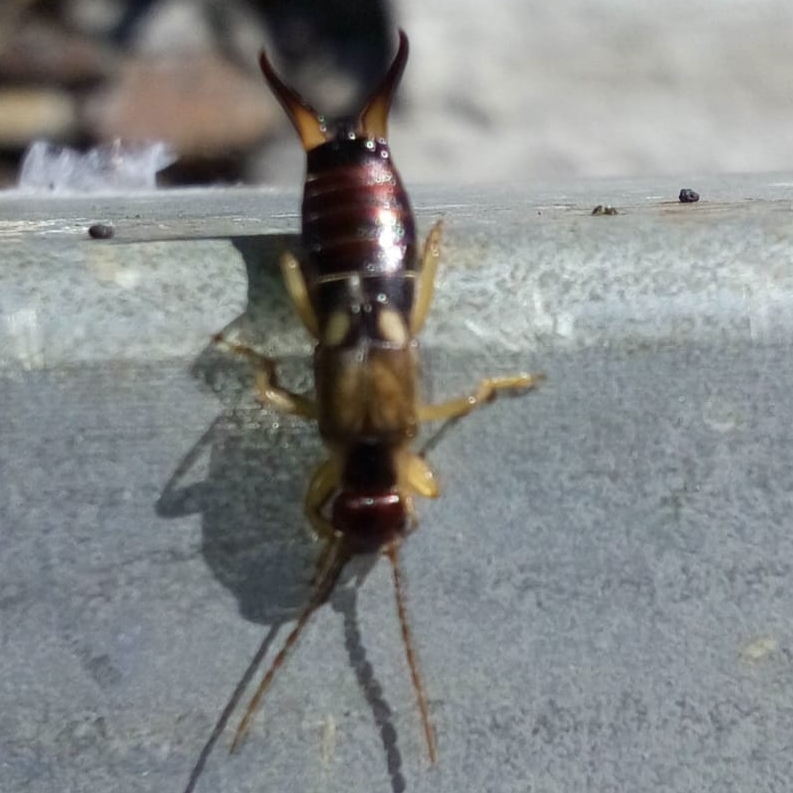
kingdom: Animalia
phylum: Arthropoda
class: Insecta
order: Dermaptera
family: Forficulidae
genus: Forficula
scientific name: Forficula
